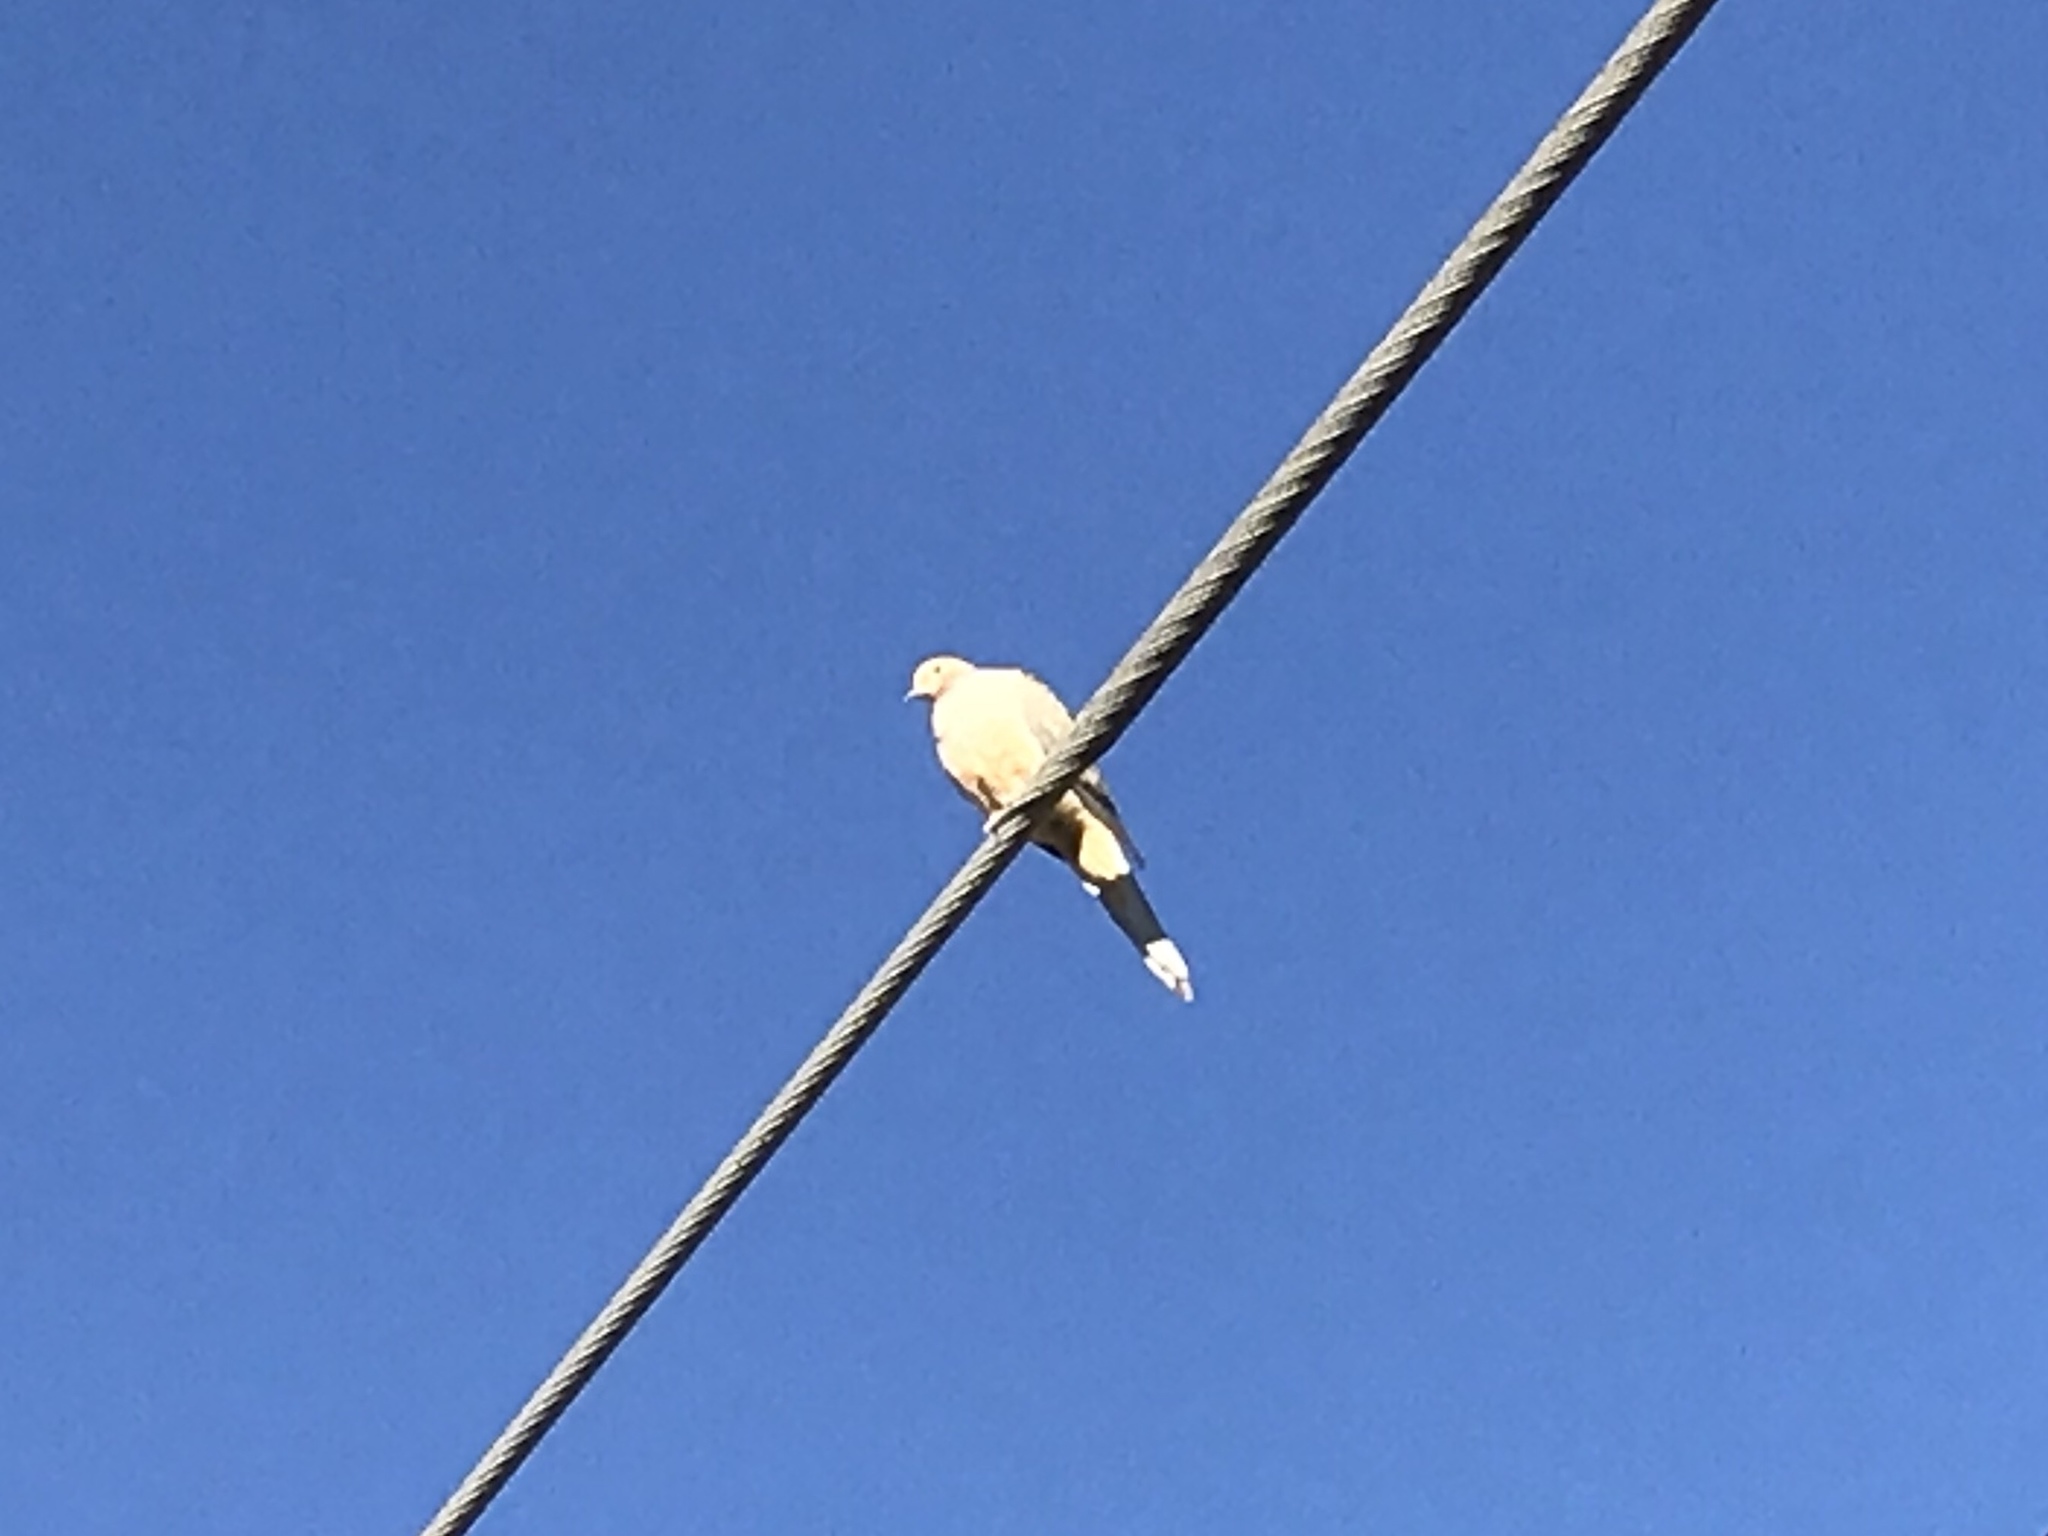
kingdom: Animalia
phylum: Chordata
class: Aves
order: Columbiformes
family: Columbidae
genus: Zenaida
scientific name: Zenaida macroura
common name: Mourning dove
